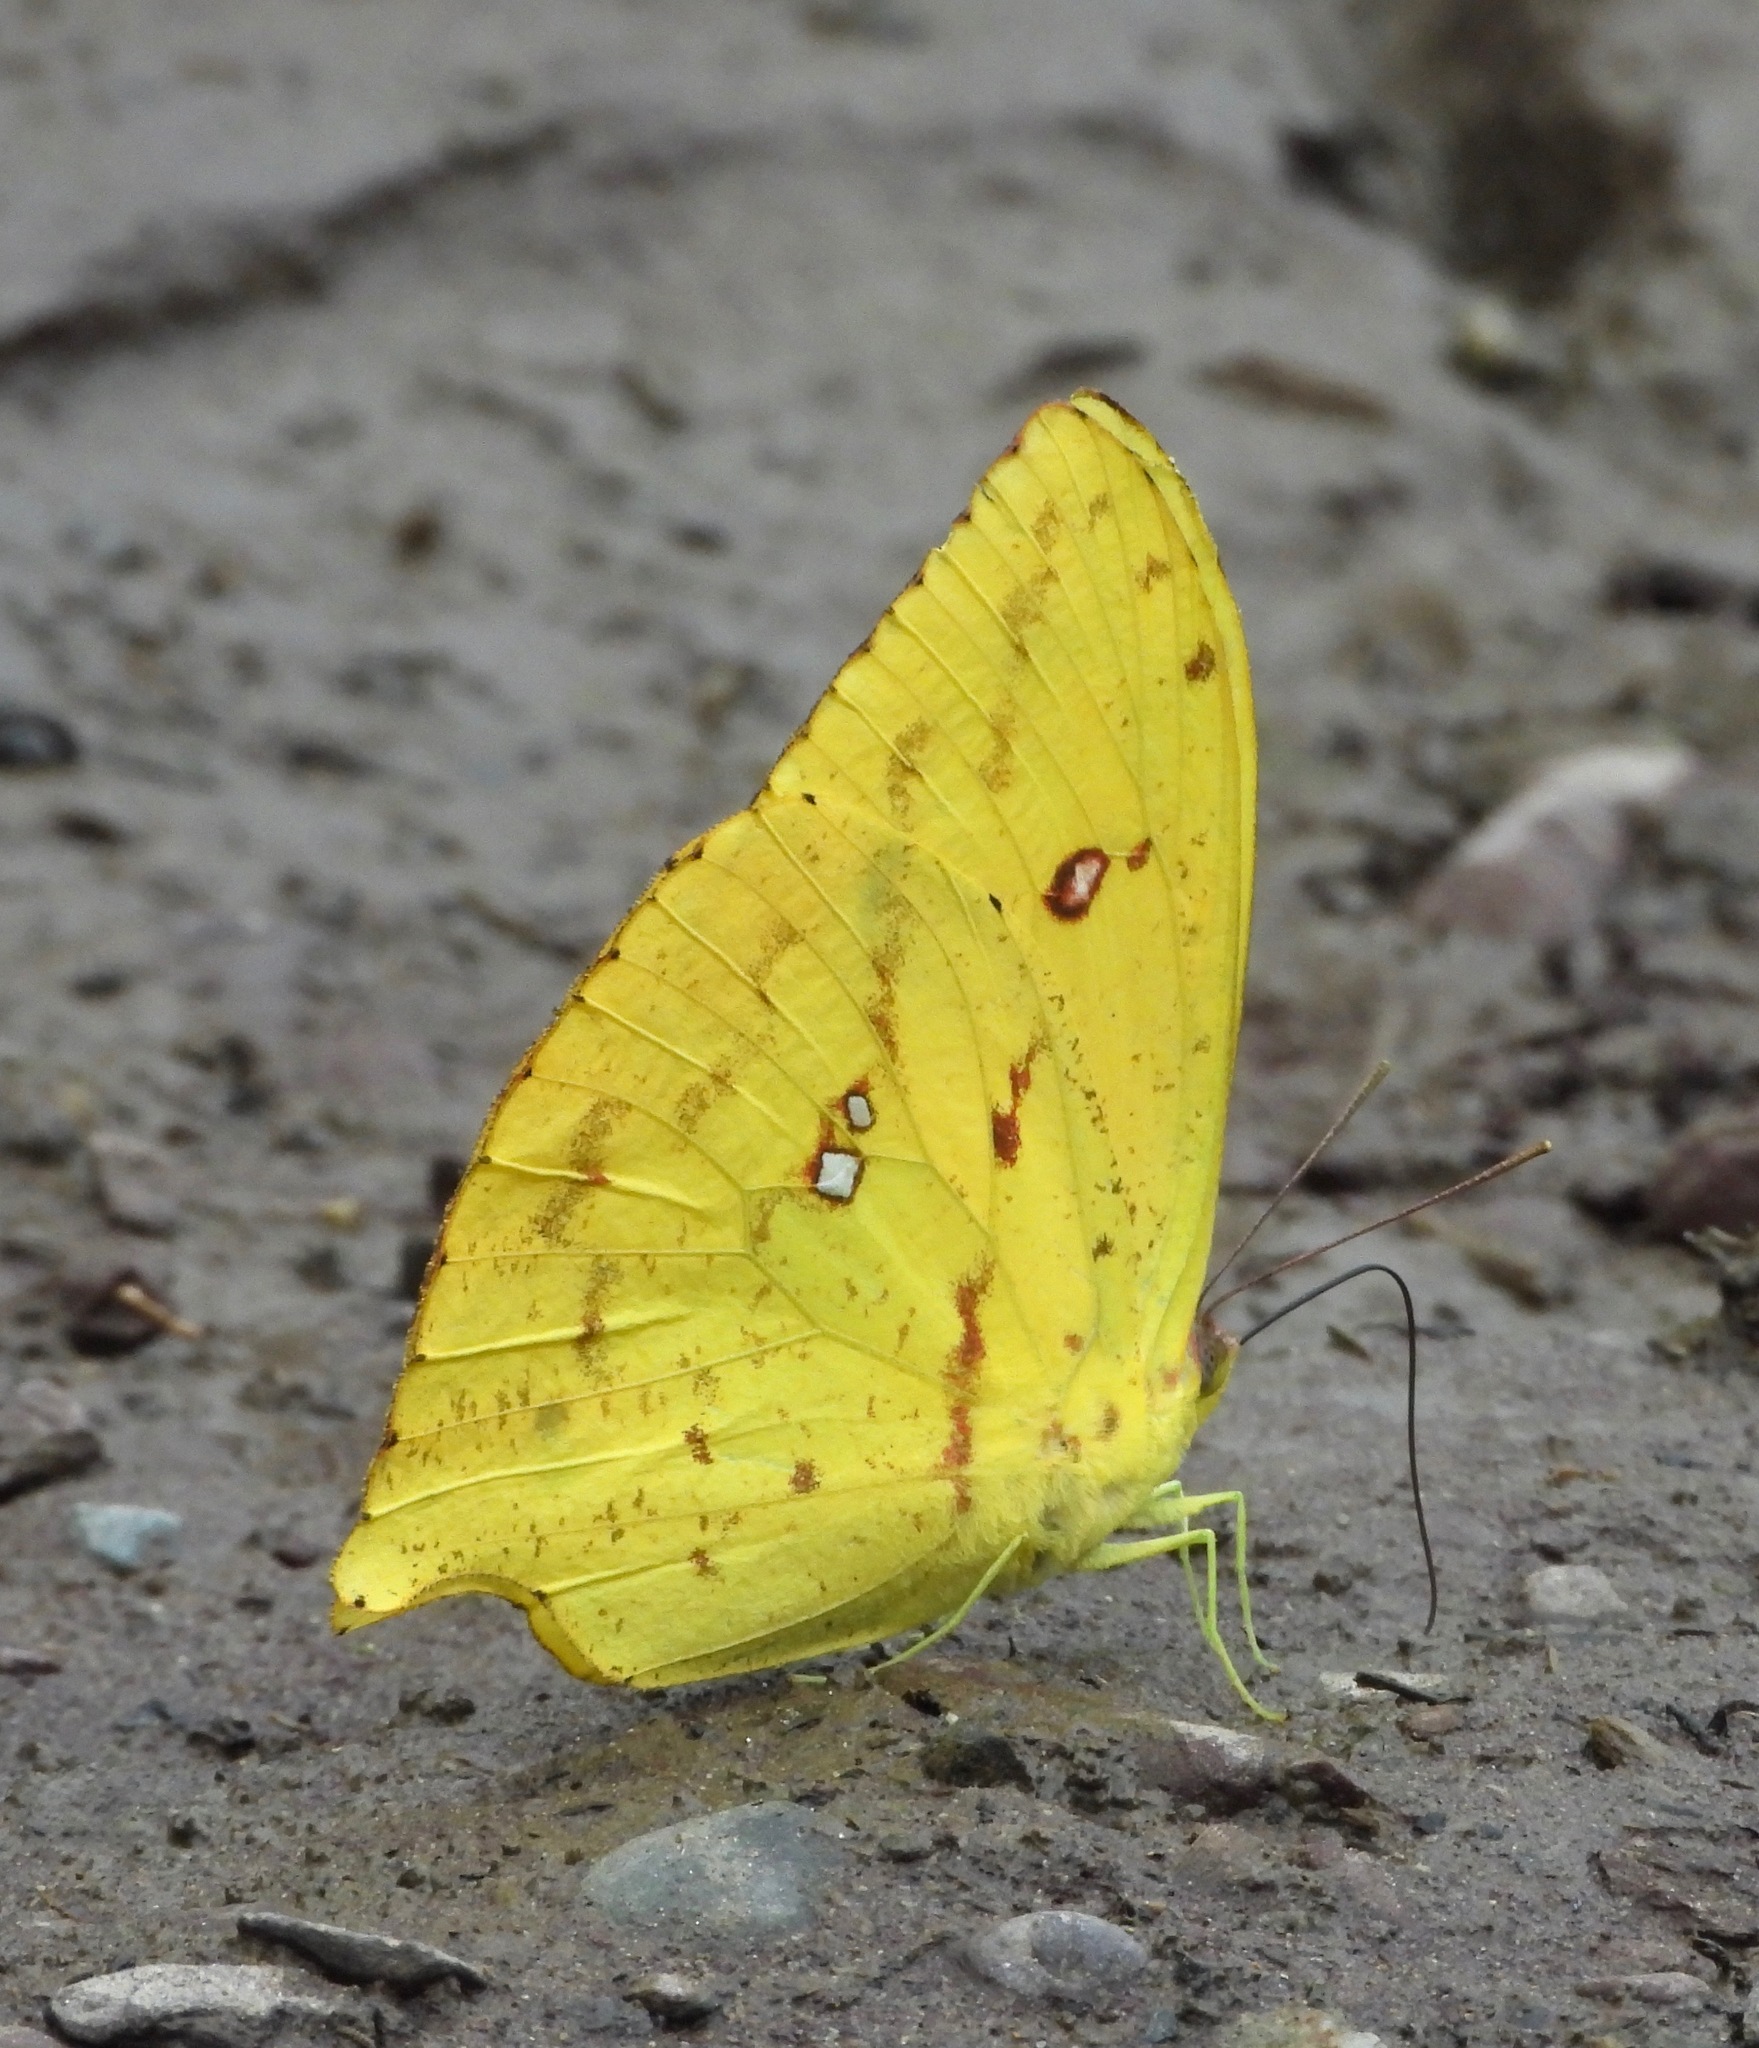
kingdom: Animalia
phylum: Arthropoda
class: Insecta
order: Lepidoptera
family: Pieridae
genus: Phoebis
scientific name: Phoebis neocypris
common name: Tailed sulphur
